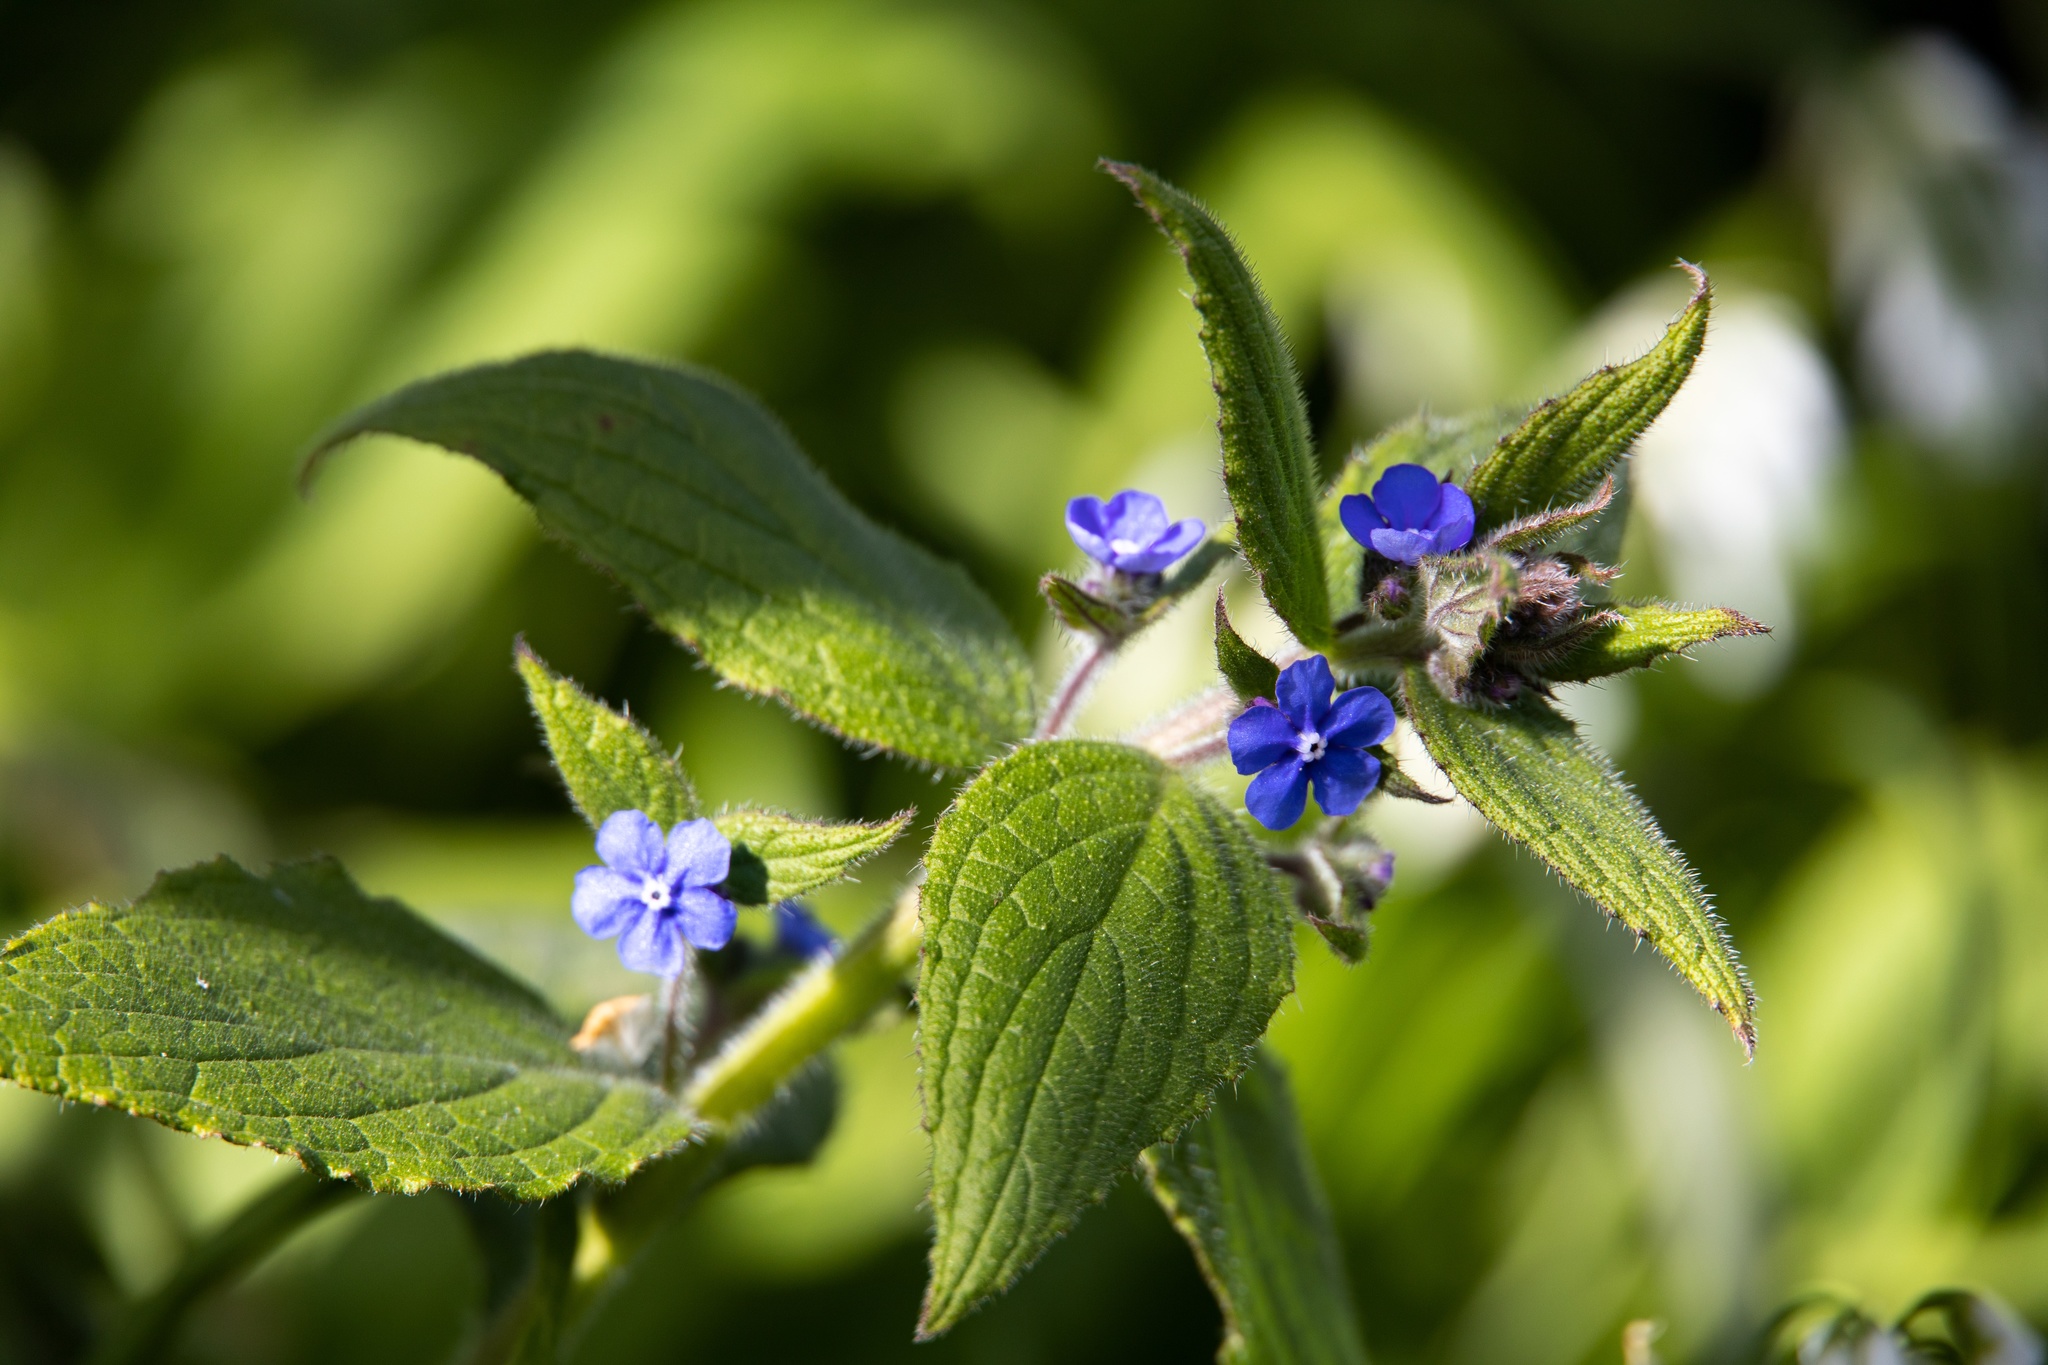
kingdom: Plantae
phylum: Tracheophyta
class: Magnoliopsida
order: Boraginales
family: Boraginaceae
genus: Pentaglottis
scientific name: Pentaglottis sempervirens
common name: Green alkanet
